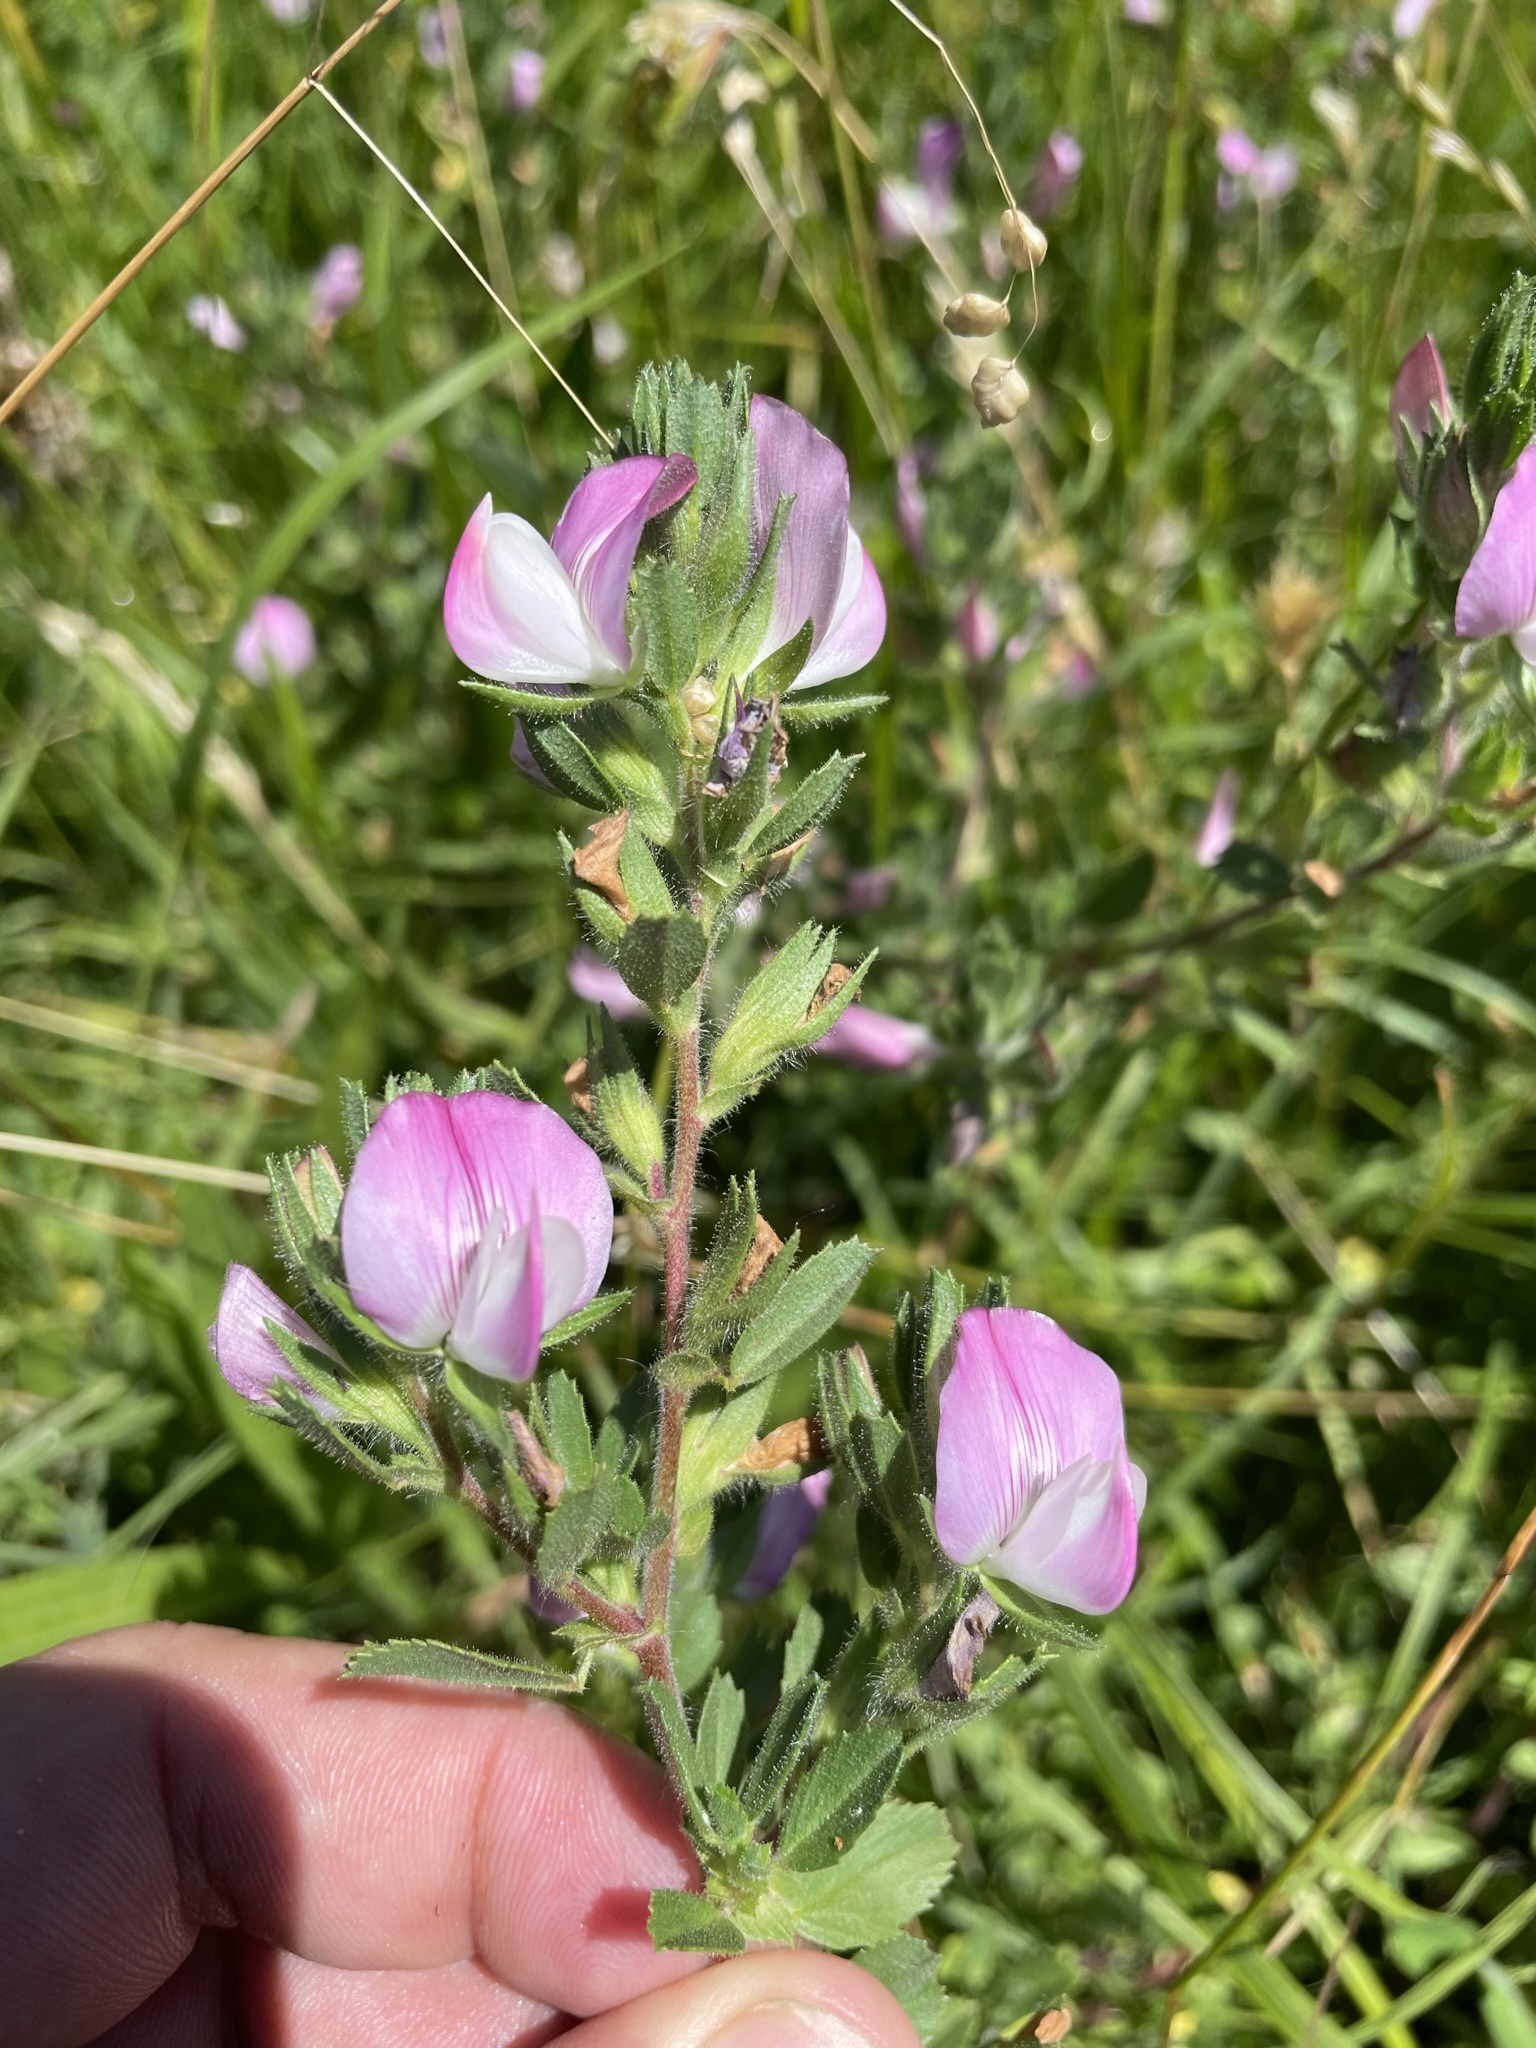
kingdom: Plantae
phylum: Tracheophyta
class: Magnoliopsida
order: Fabales
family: Fabaceae
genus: Ononis
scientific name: Ononis spinosa
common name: Spiny restharrow
